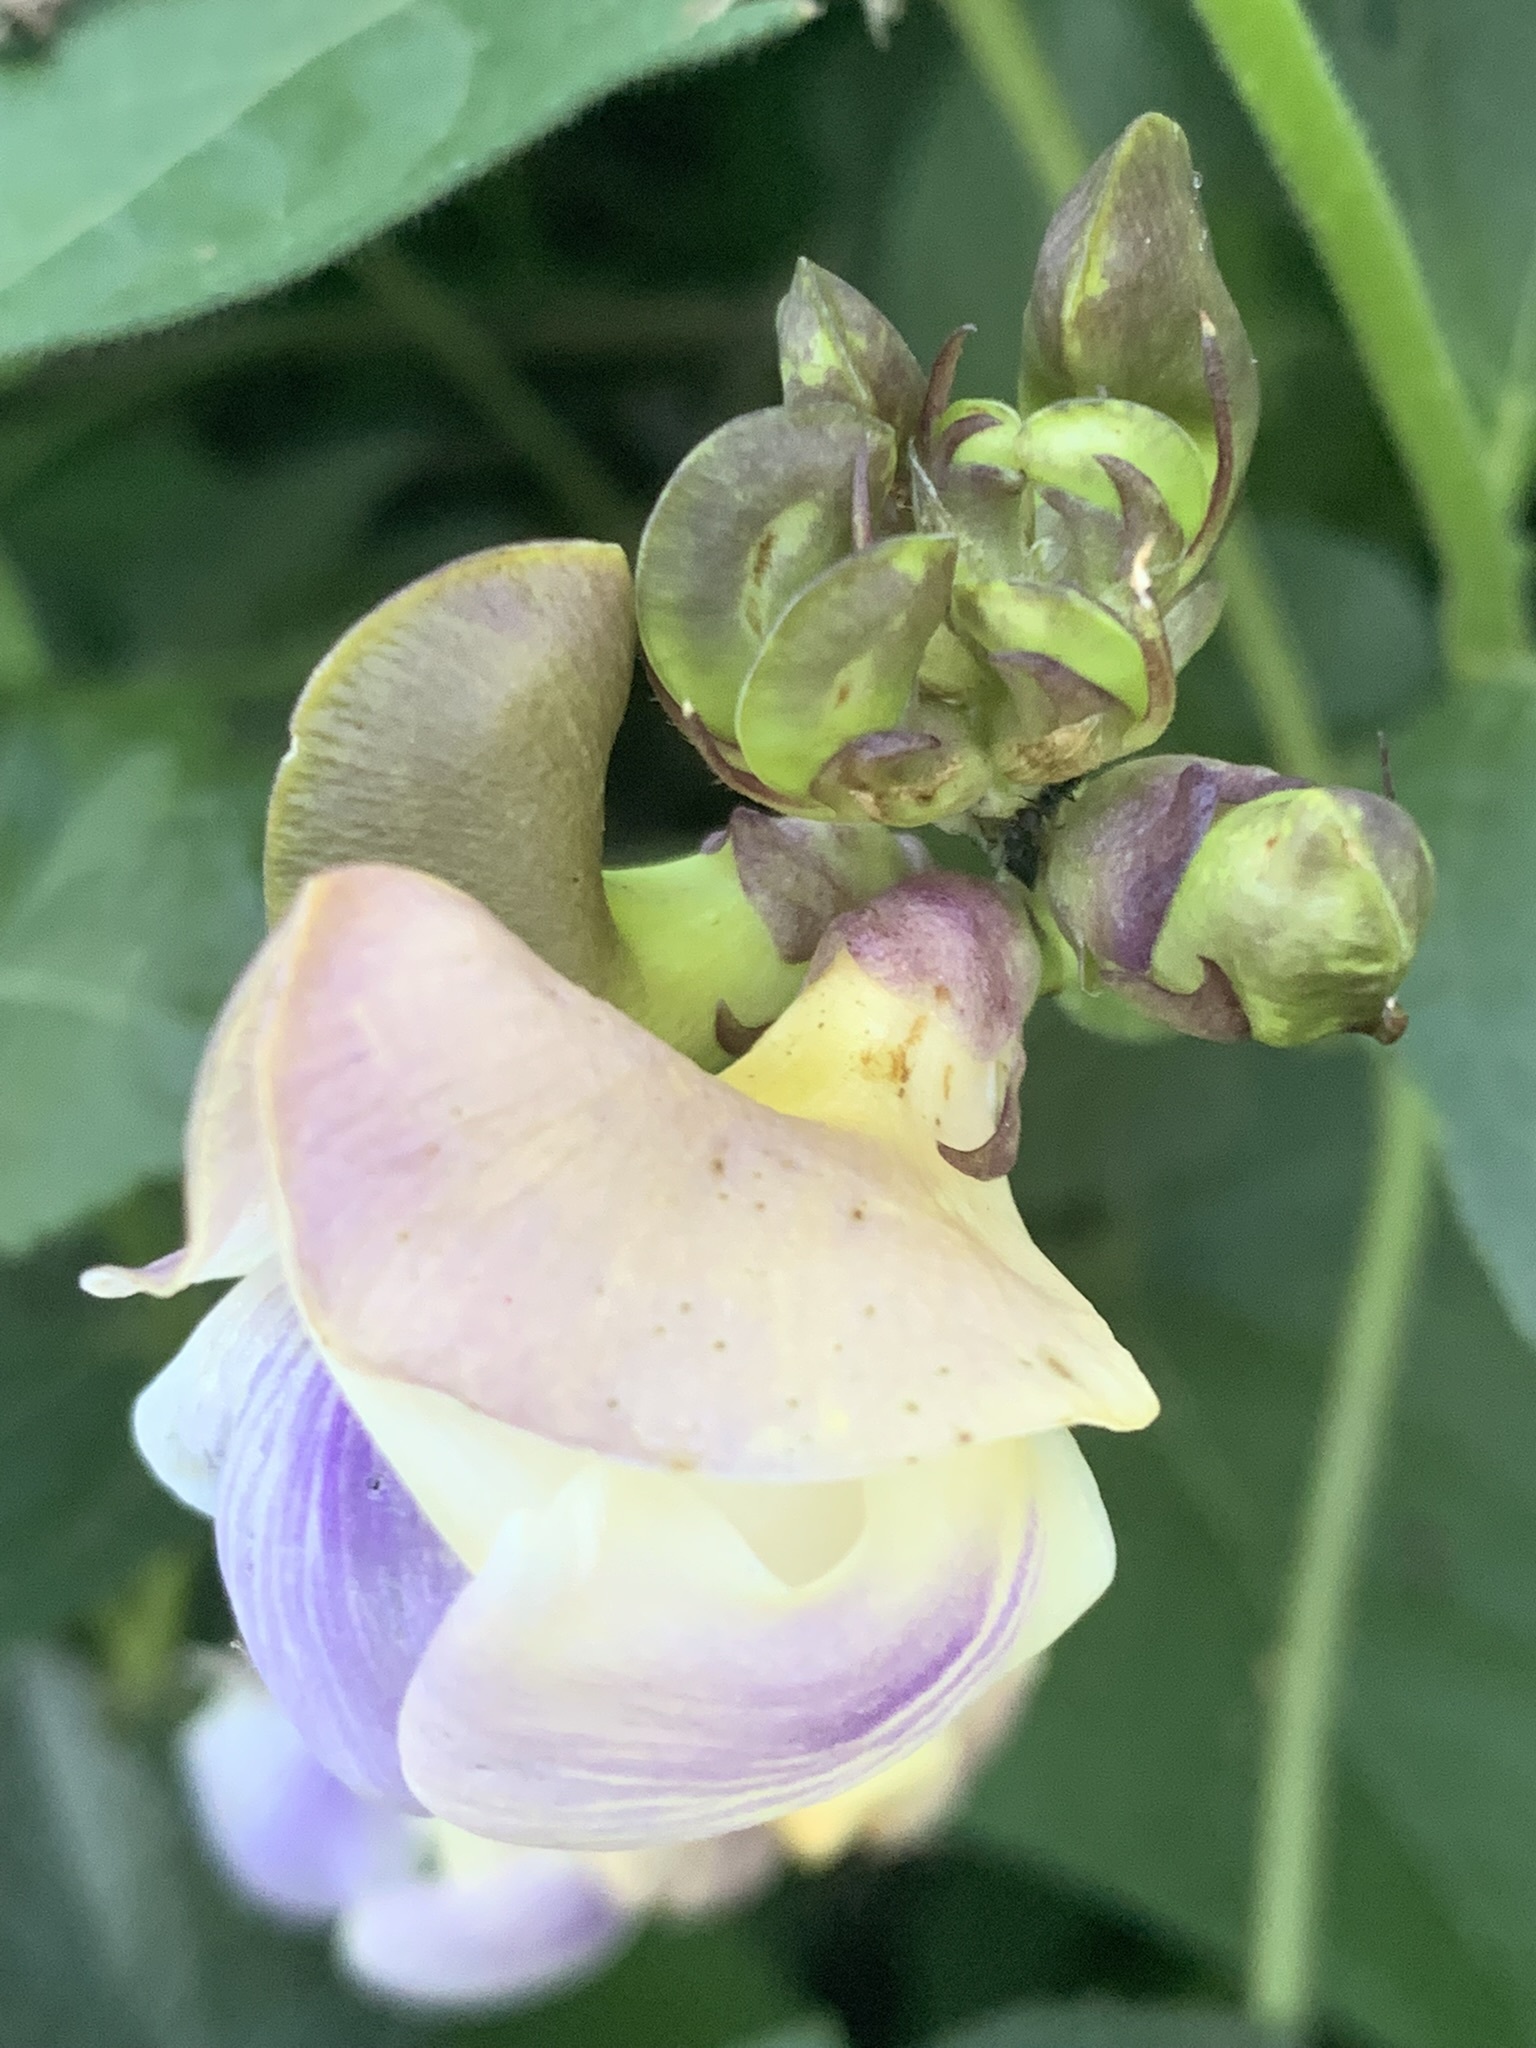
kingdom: Plantae
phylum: Tracheophyta
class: Magnoliopsida
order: Fabales
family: Fabaceae
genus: Leptospron
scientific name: Leptospron adenanthum
